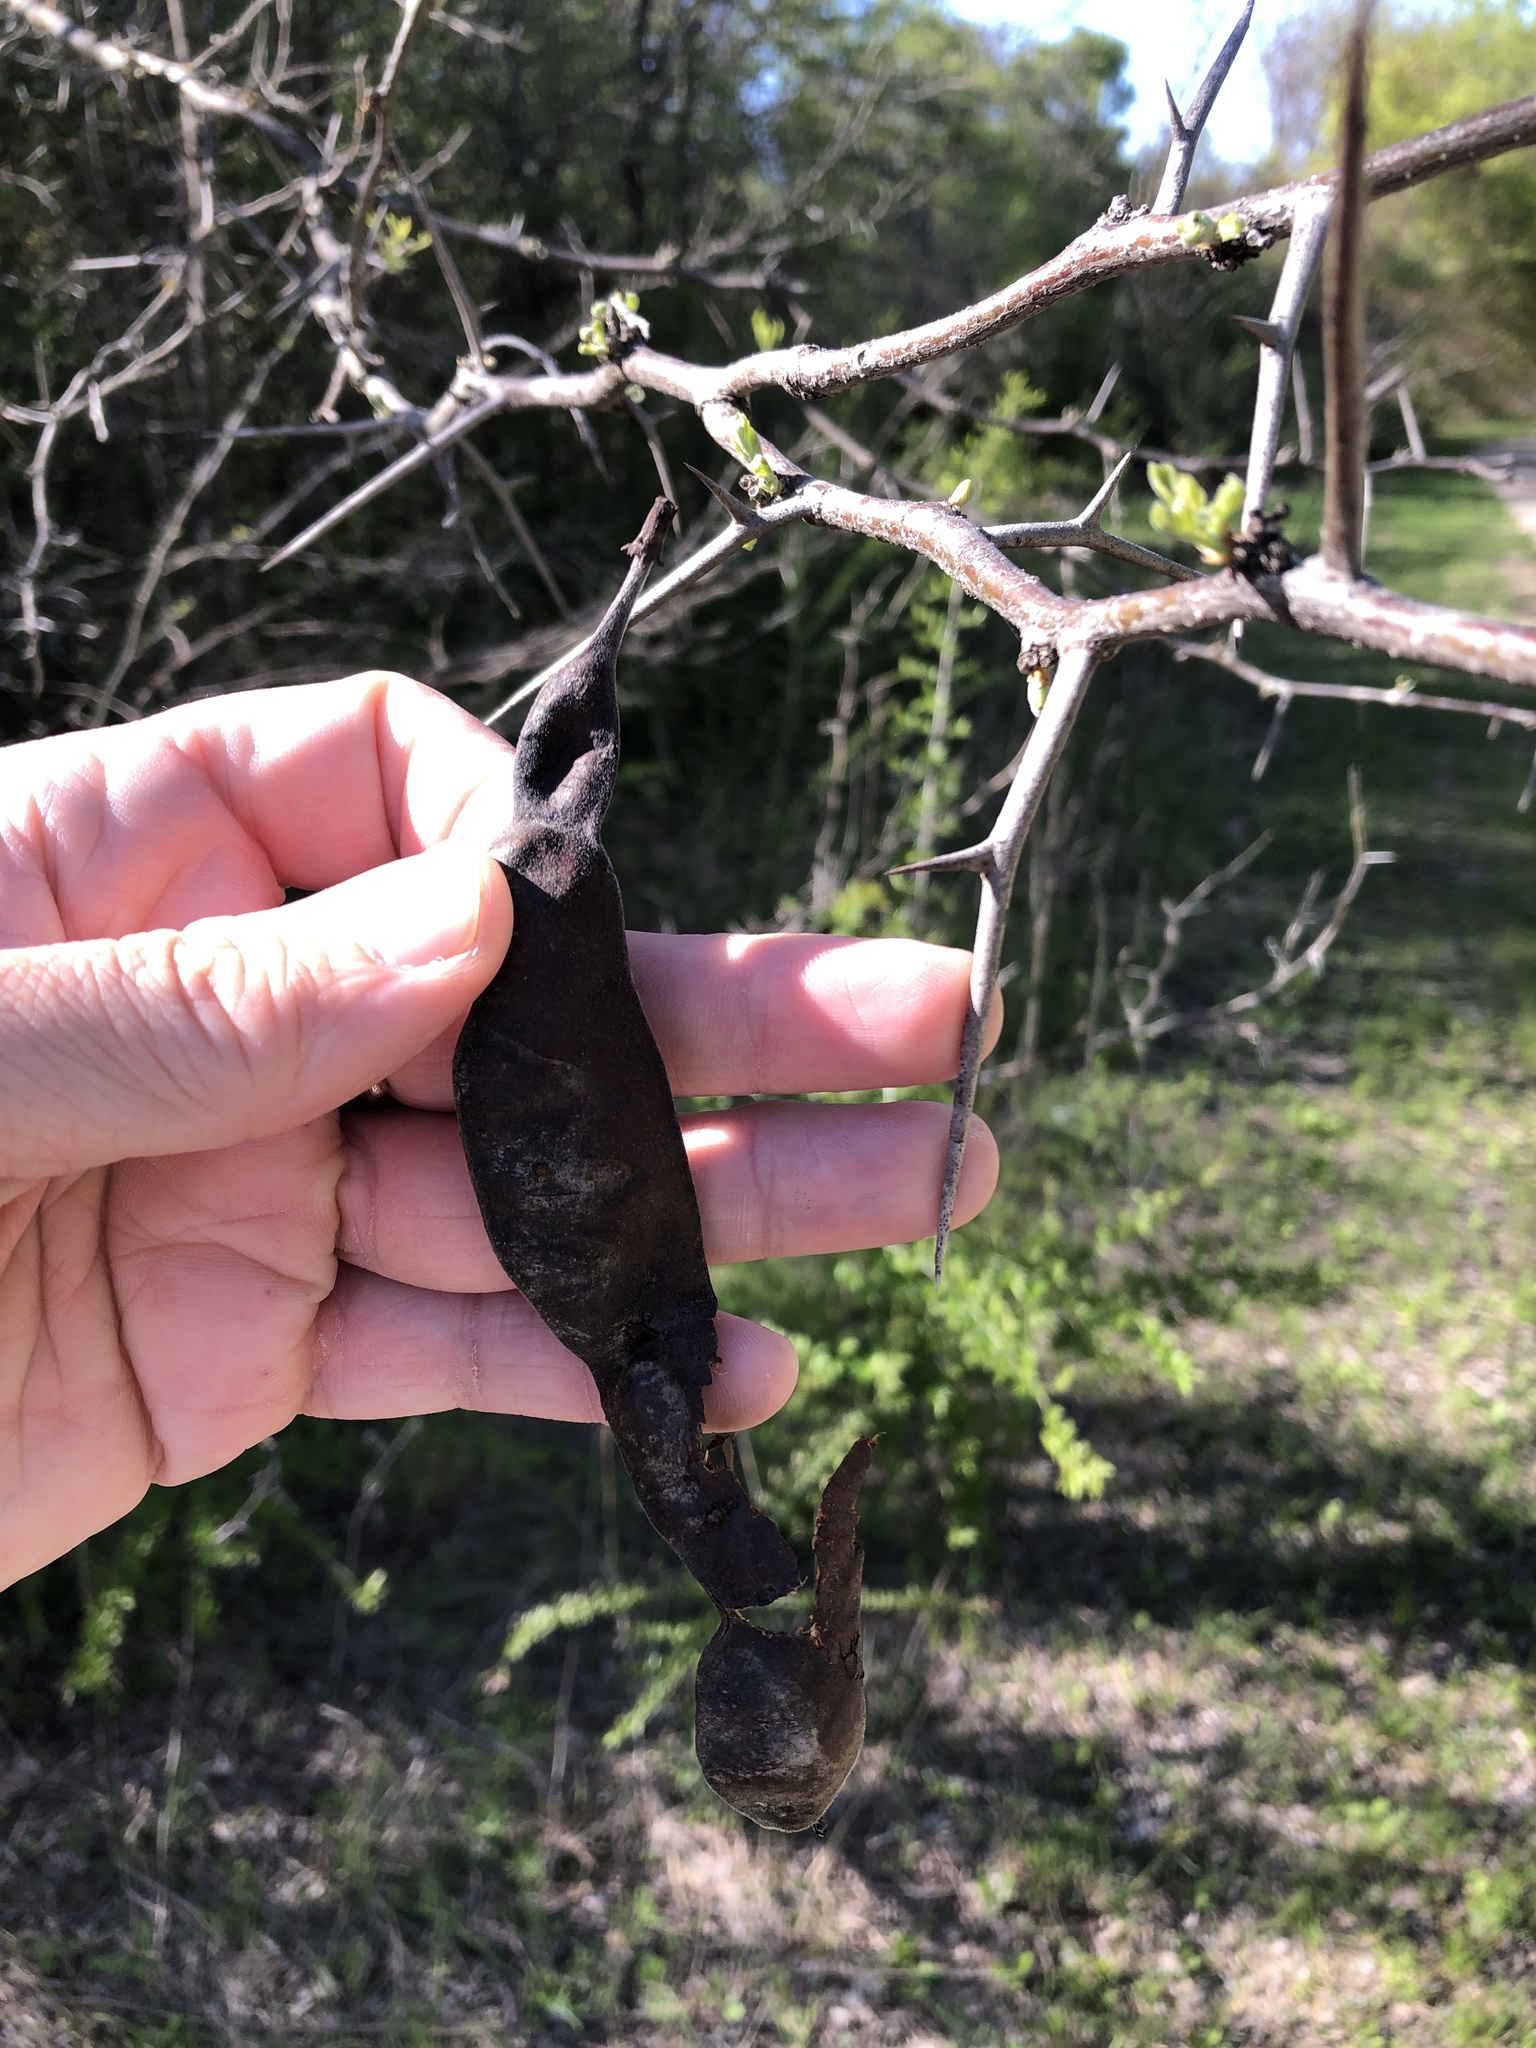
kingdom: Plantae
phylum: Tracheophyta
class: Magnoliopsida
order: Fabales
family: Fabaceae
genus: Gleditsia
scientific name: Gleditsia triacanthos
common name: Common honeylocust
